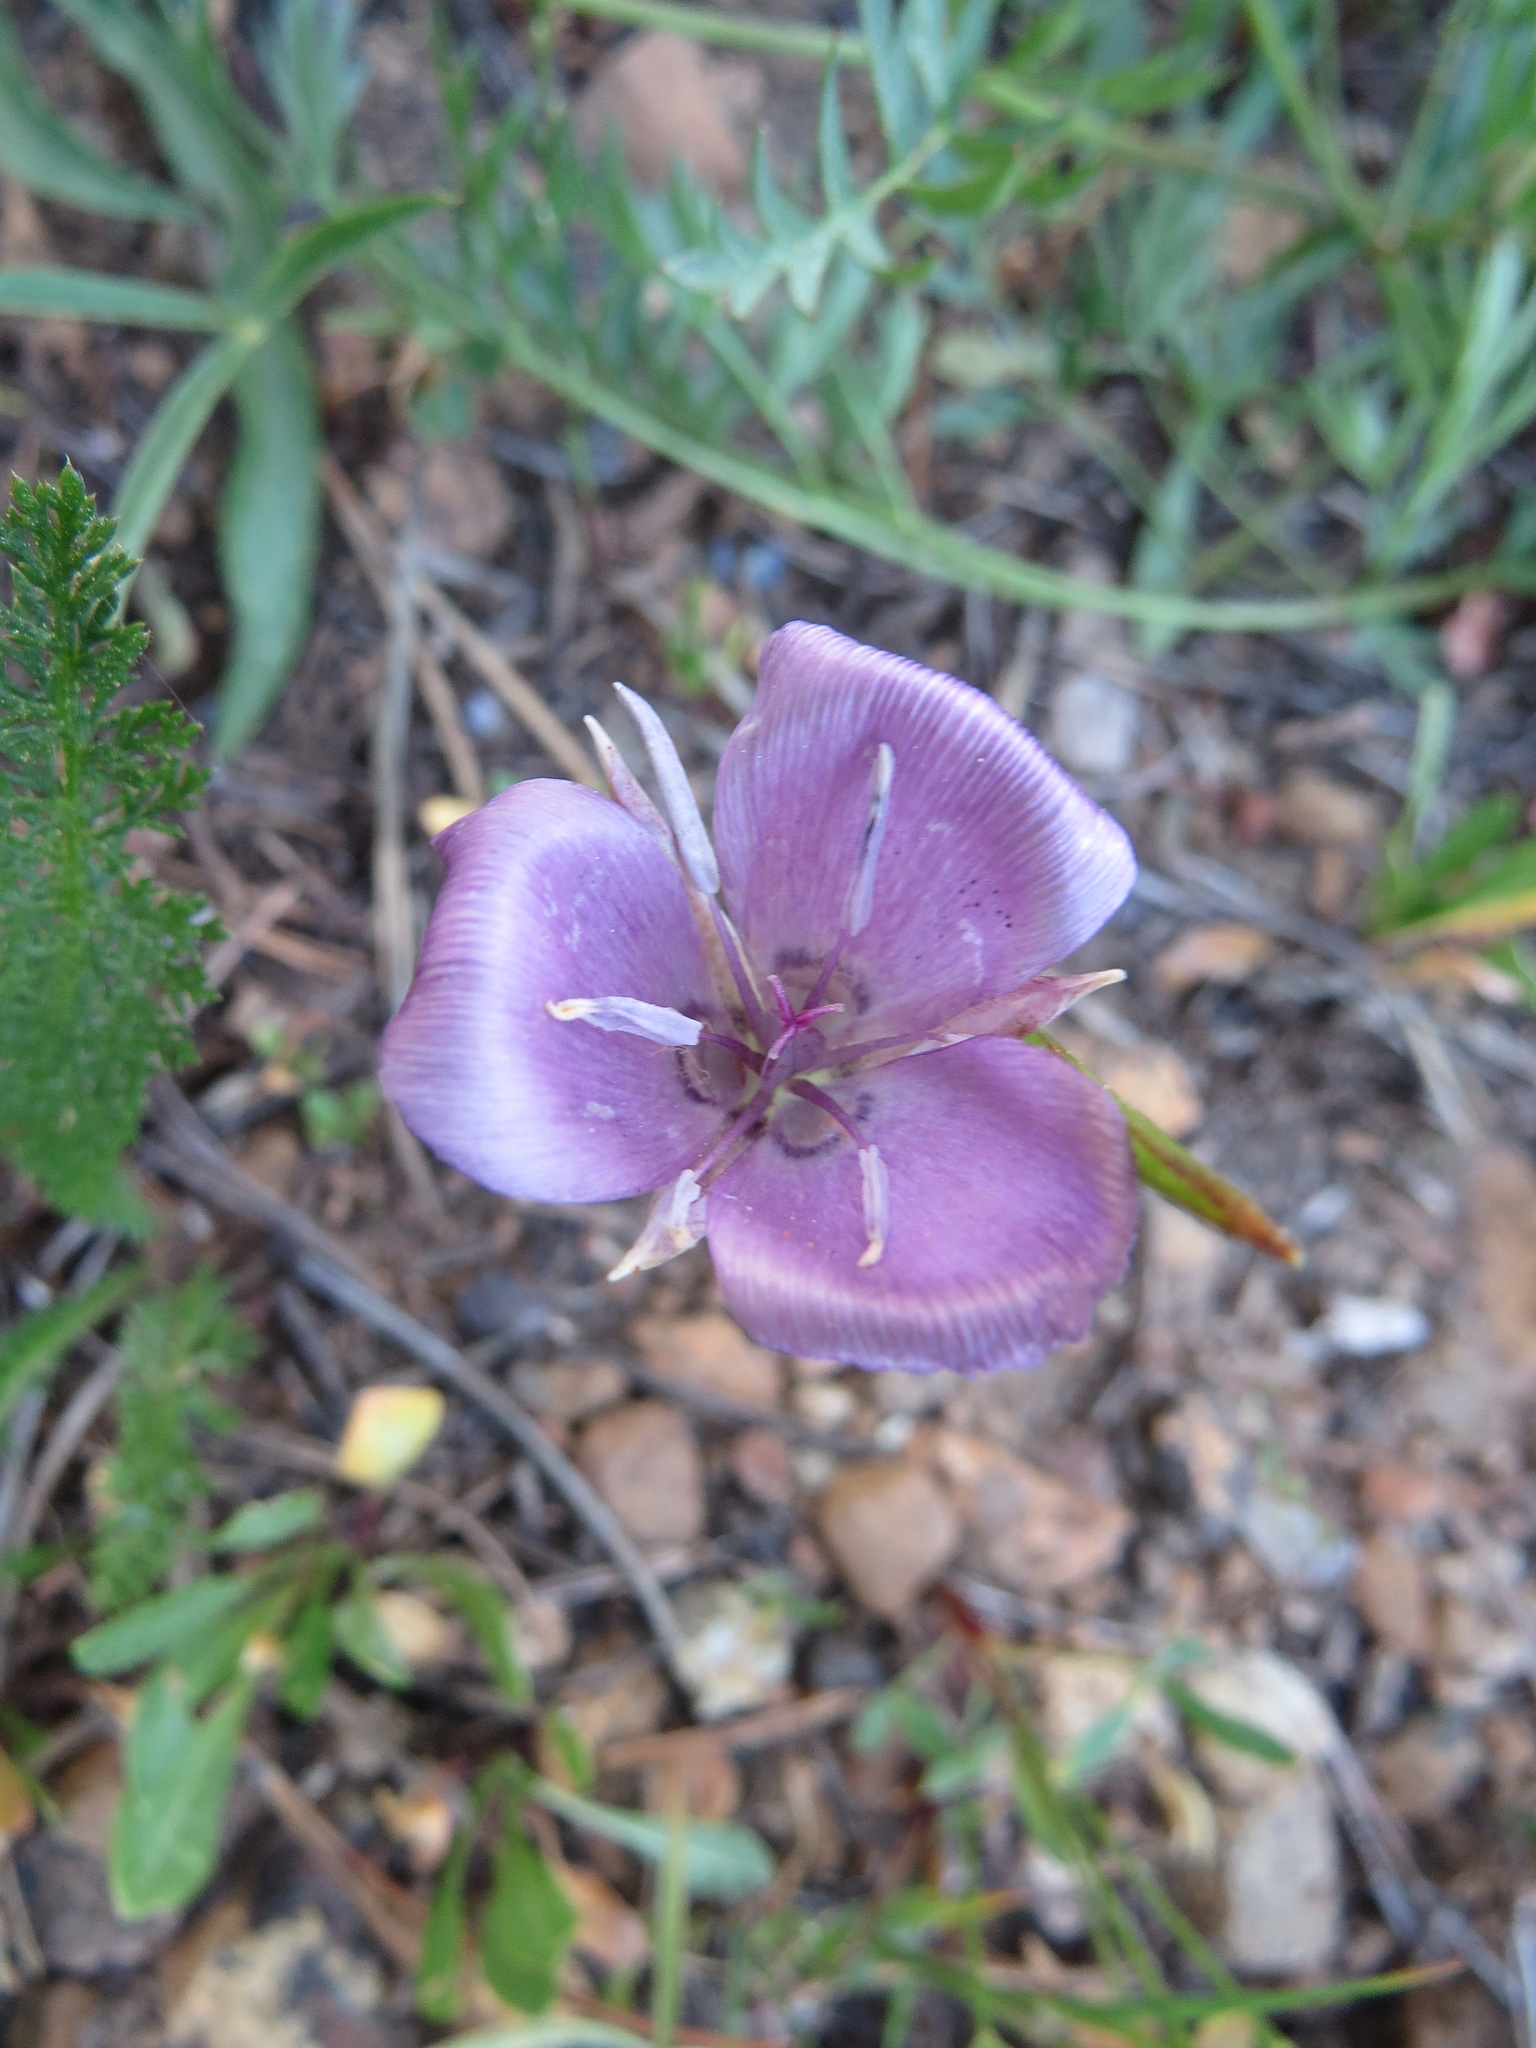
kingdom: Plantae
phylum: Tracheophyta
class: Liliopsida
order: Liliales
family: Liliaceae
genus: Calochortus
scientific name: Calochortus nudus
